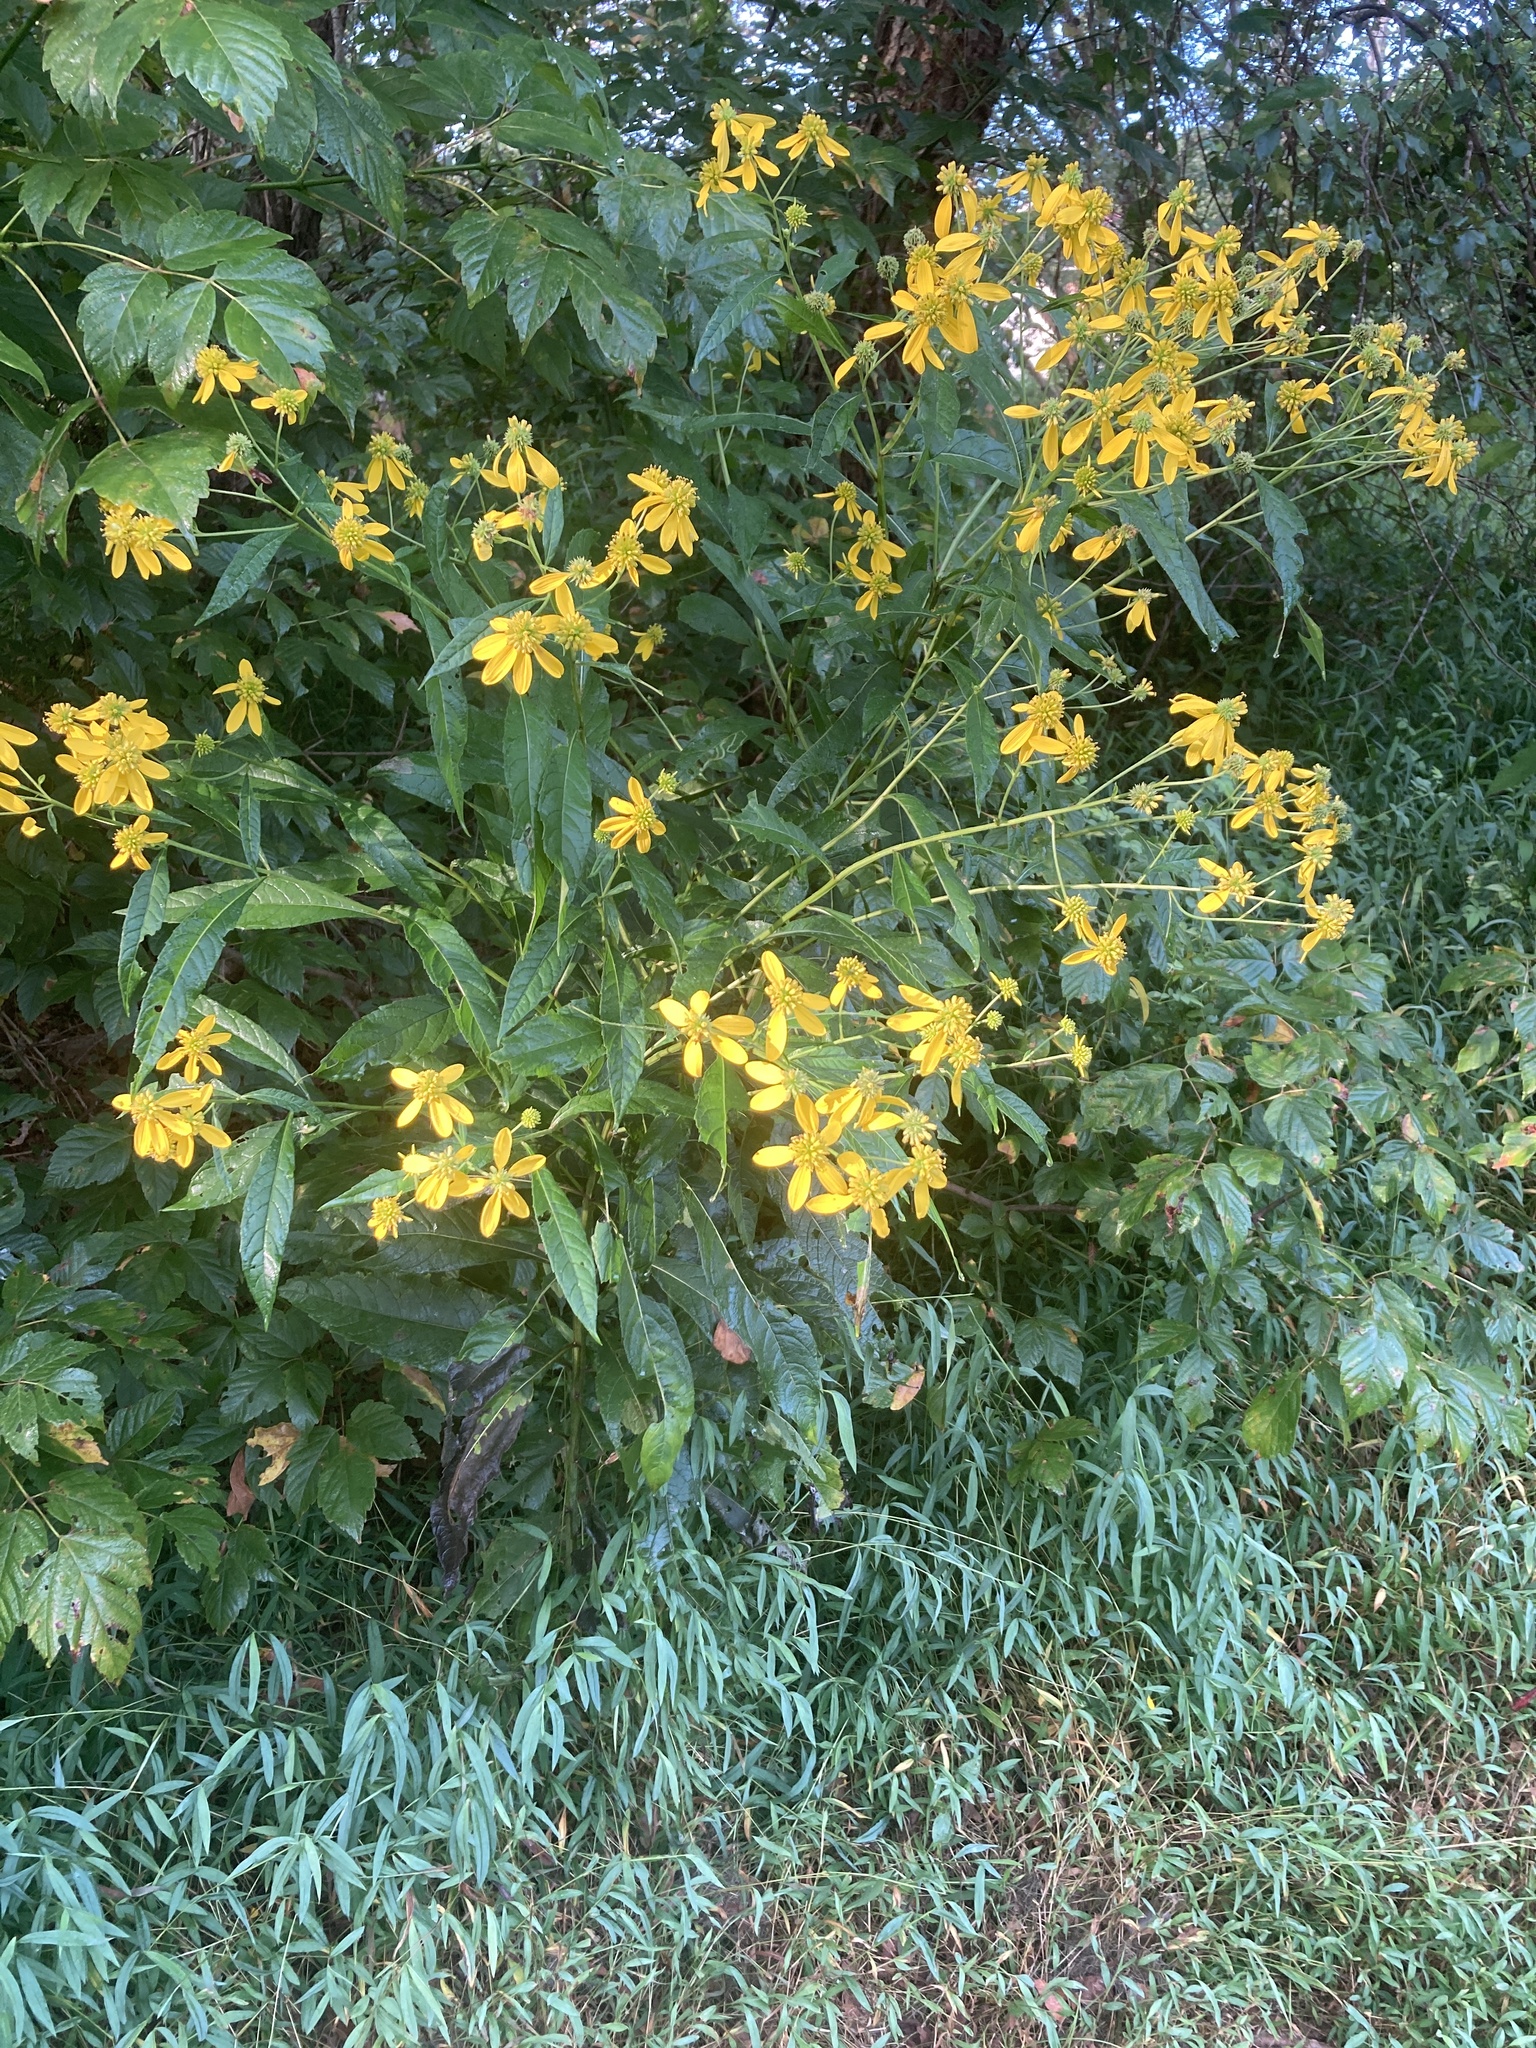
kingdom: Plantae
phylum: Tracheophyta
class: Magnoliopsida
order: Asterales
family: Asteraceae
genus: Verbesina
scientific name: Verbesina alternifolia
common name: Wingstem
